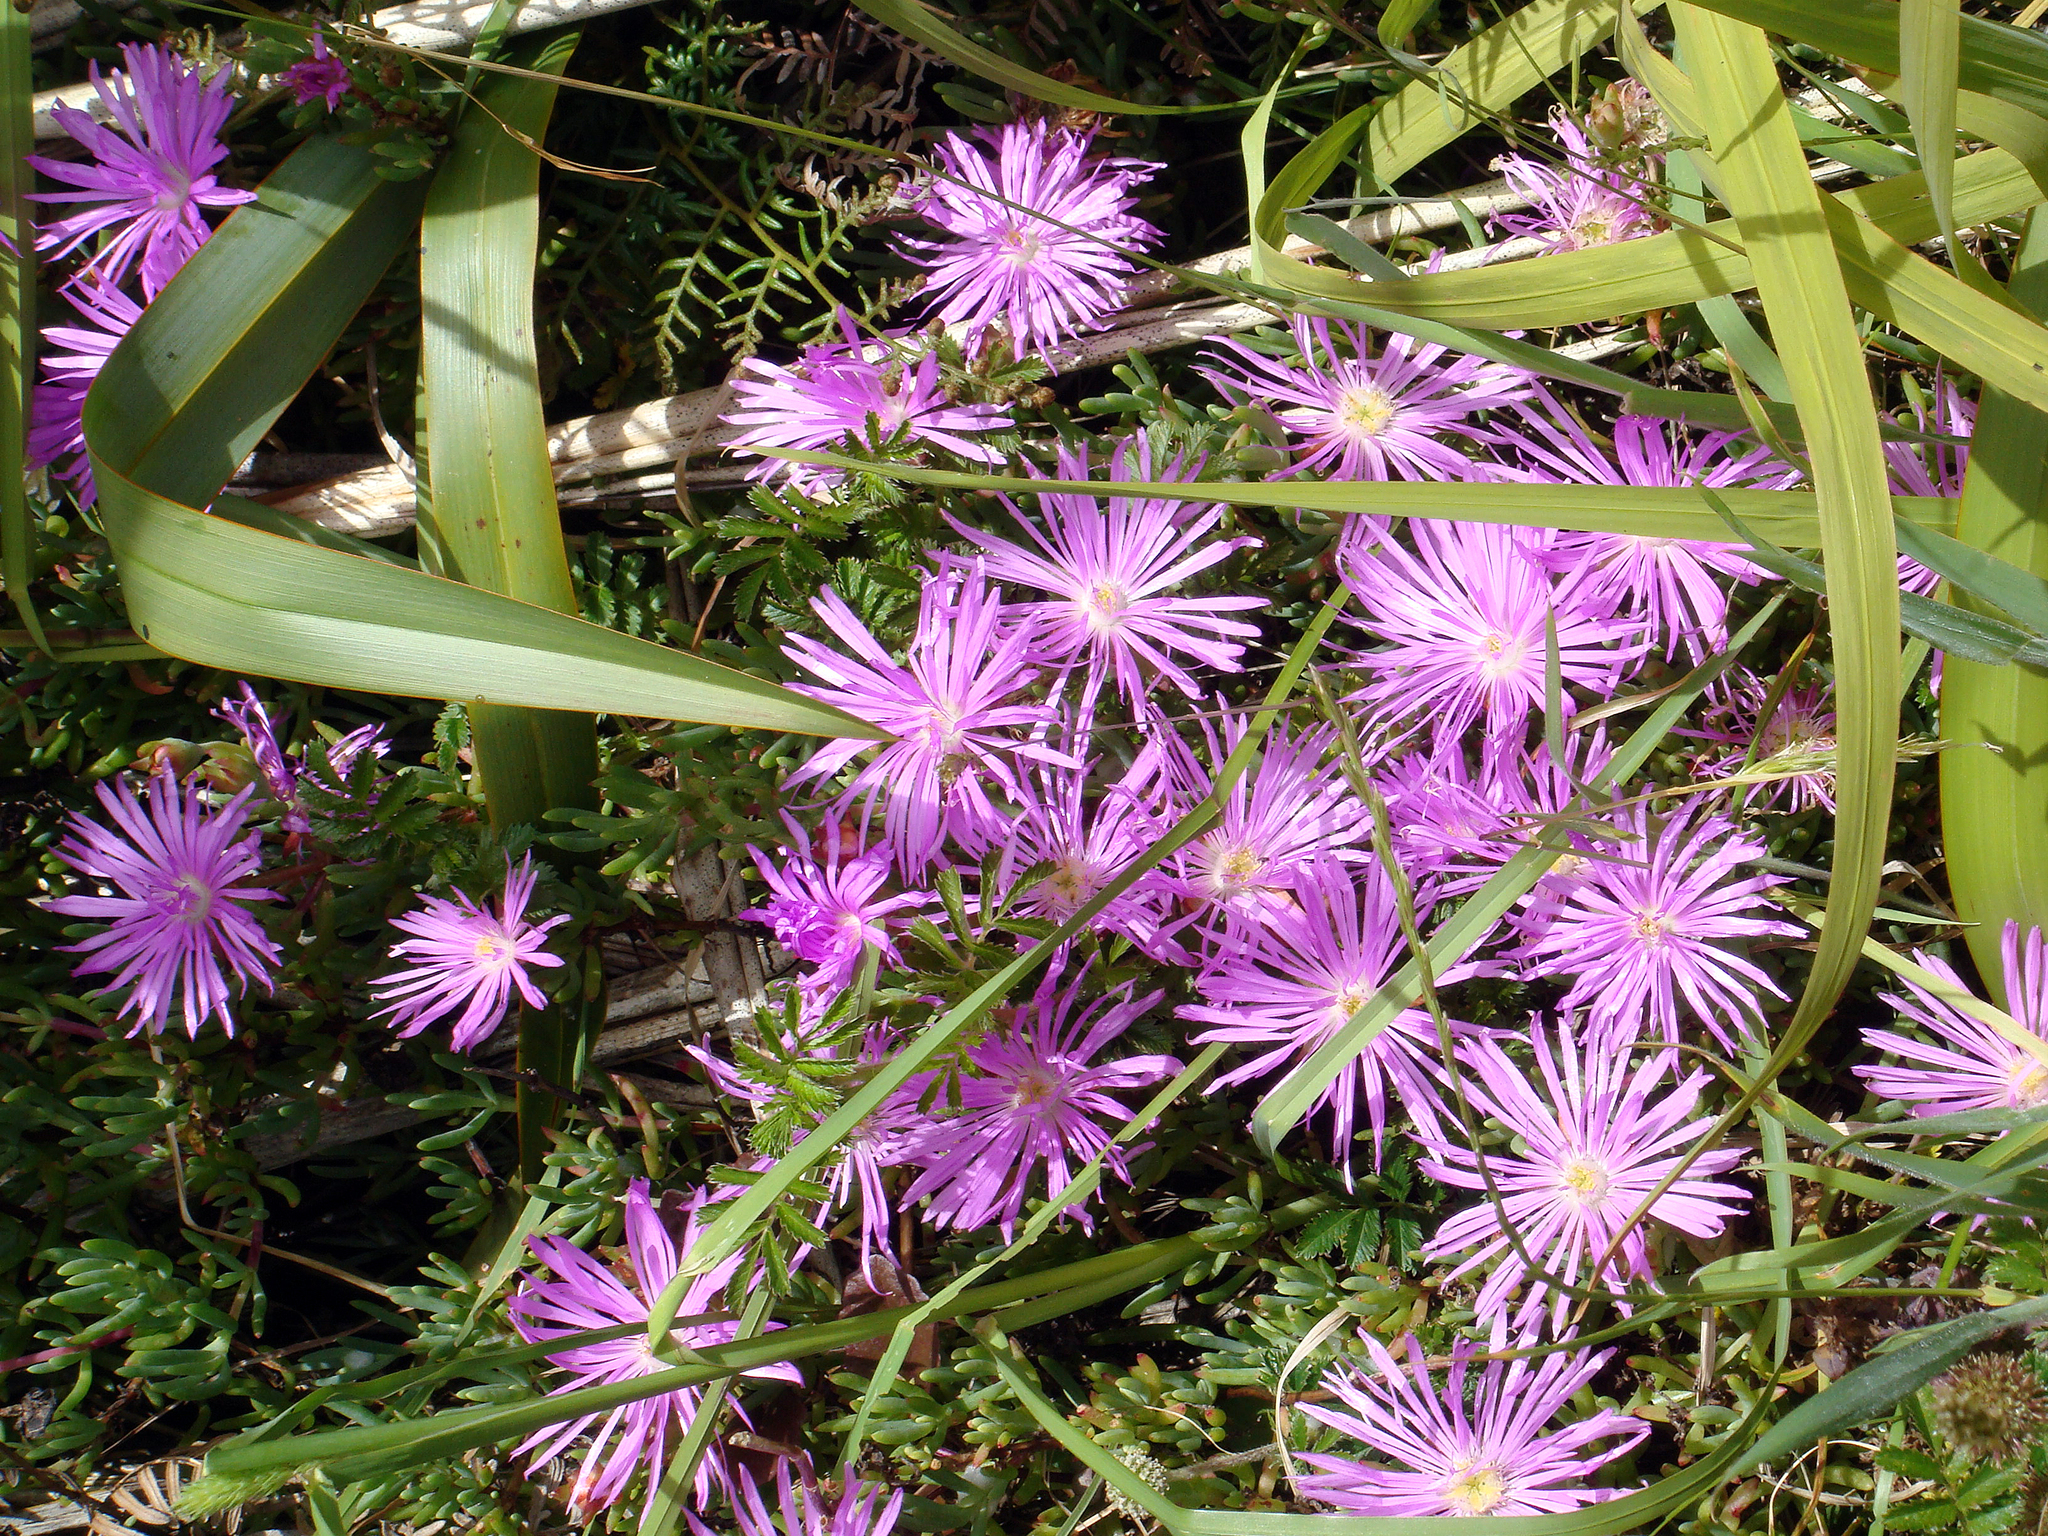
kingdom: Plantae
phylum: Tracheophyta
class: Magnoliopsida
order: Caryophyllales
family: Aizoaceae
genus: Lampranthus
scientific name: Lampranthus multiradiatus
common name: Creeping redflush
